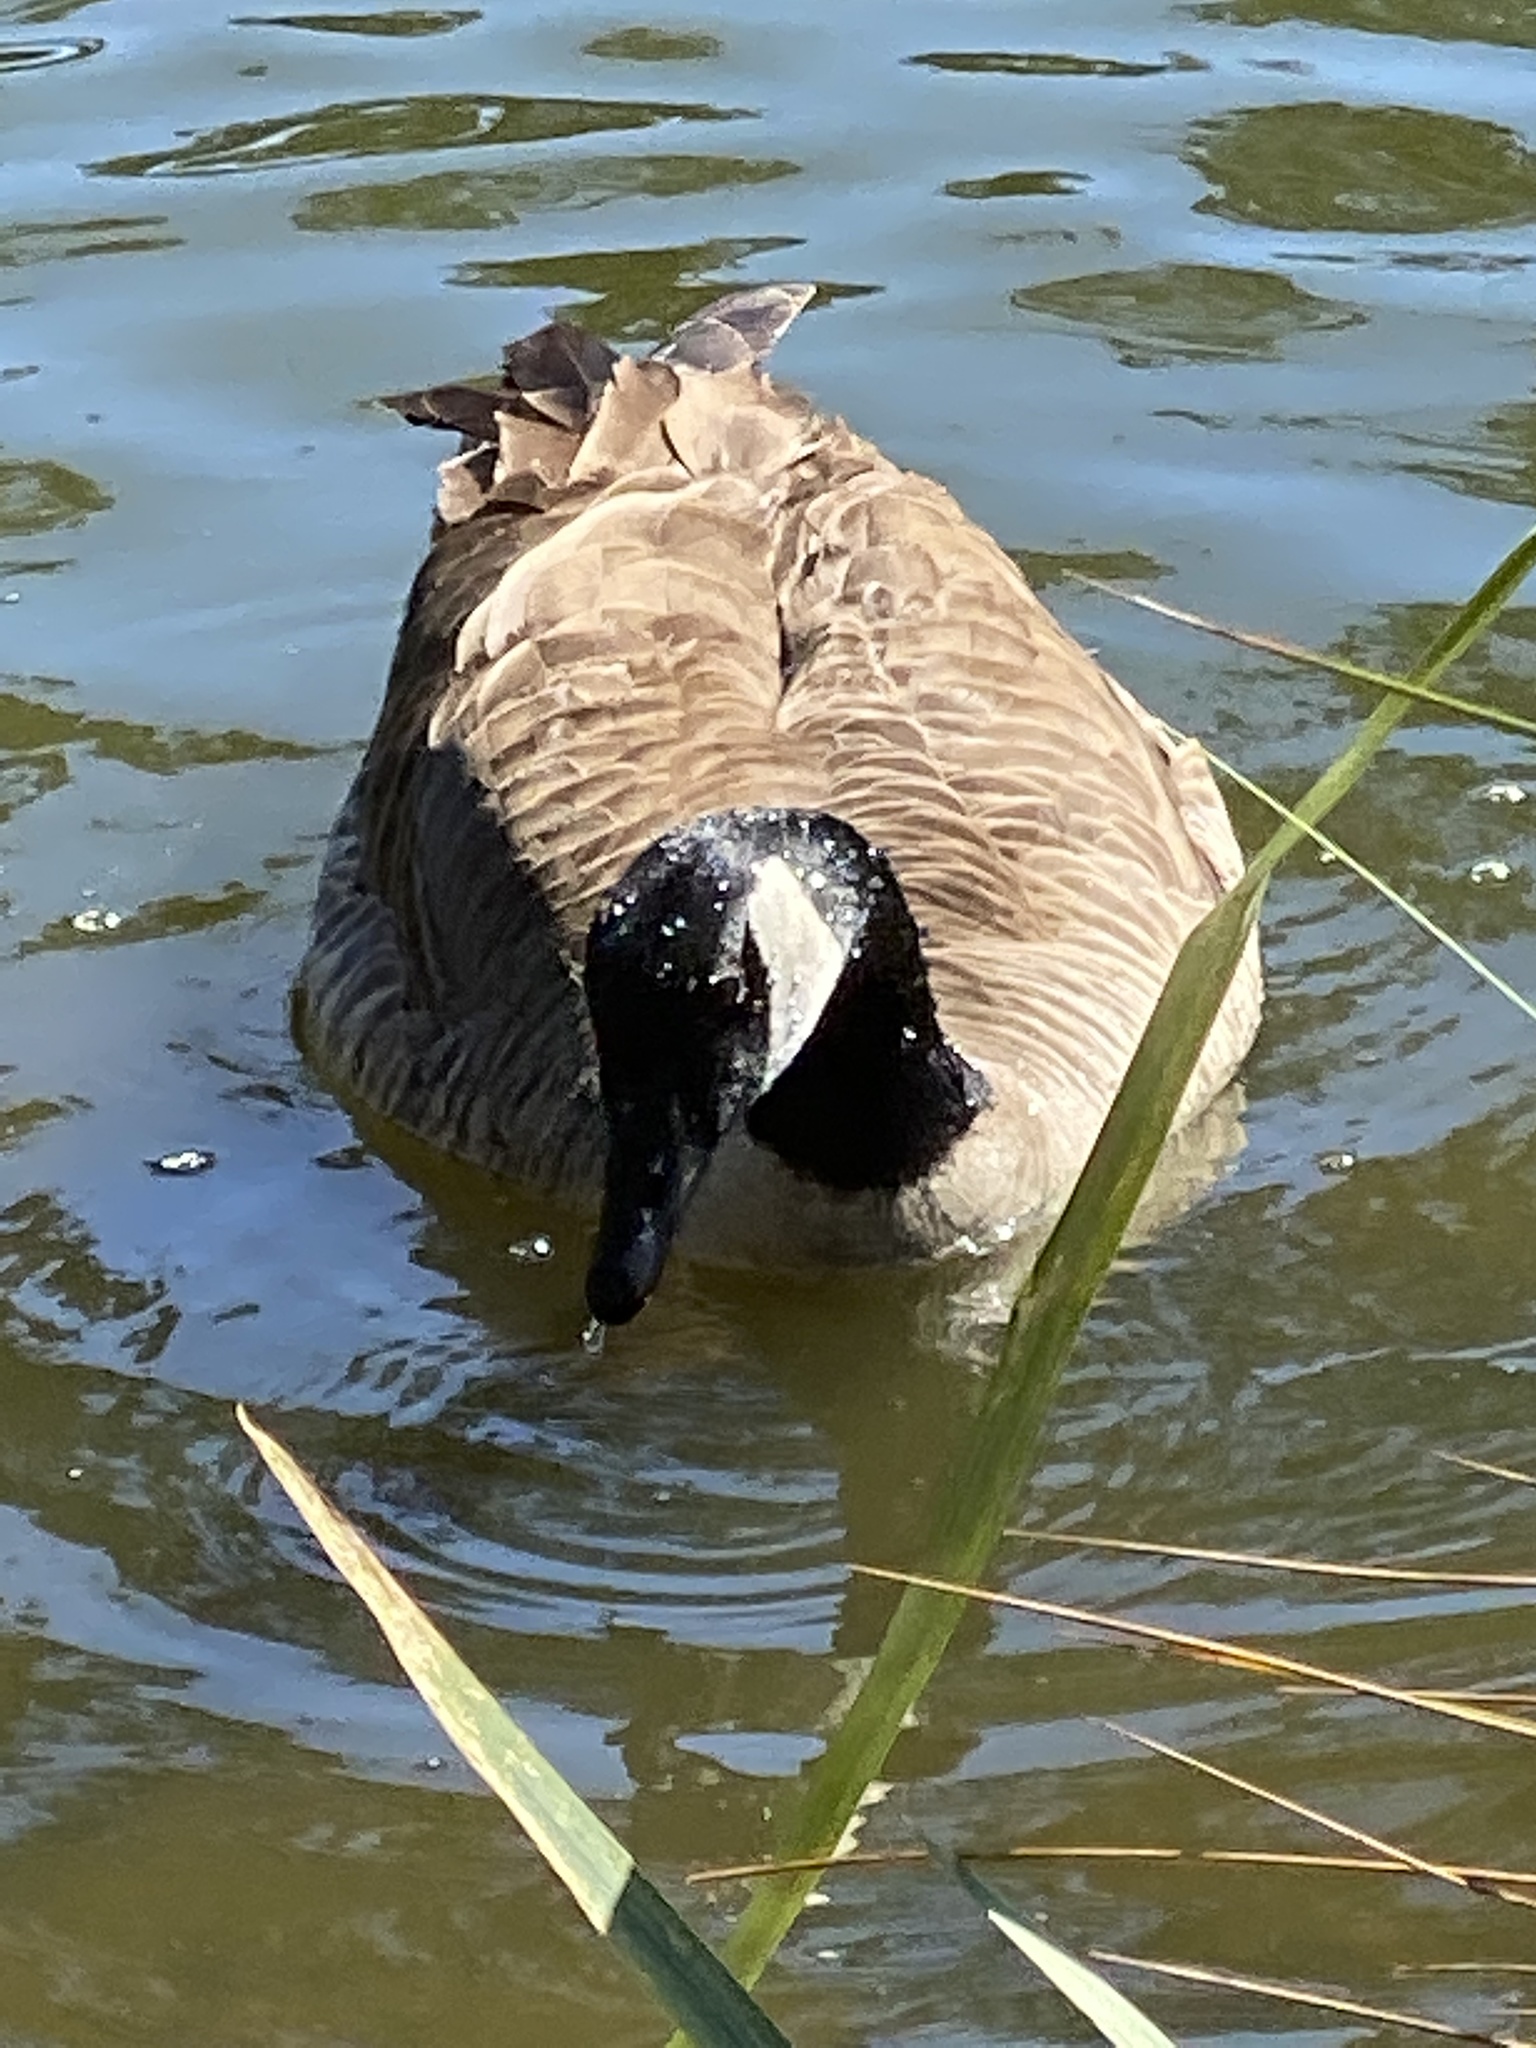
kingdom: Animalia
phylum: Chordata
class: Aves
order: Anseriformes
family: Anatidae
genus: Branta
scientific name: Branta canadensis
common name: Canada goose
